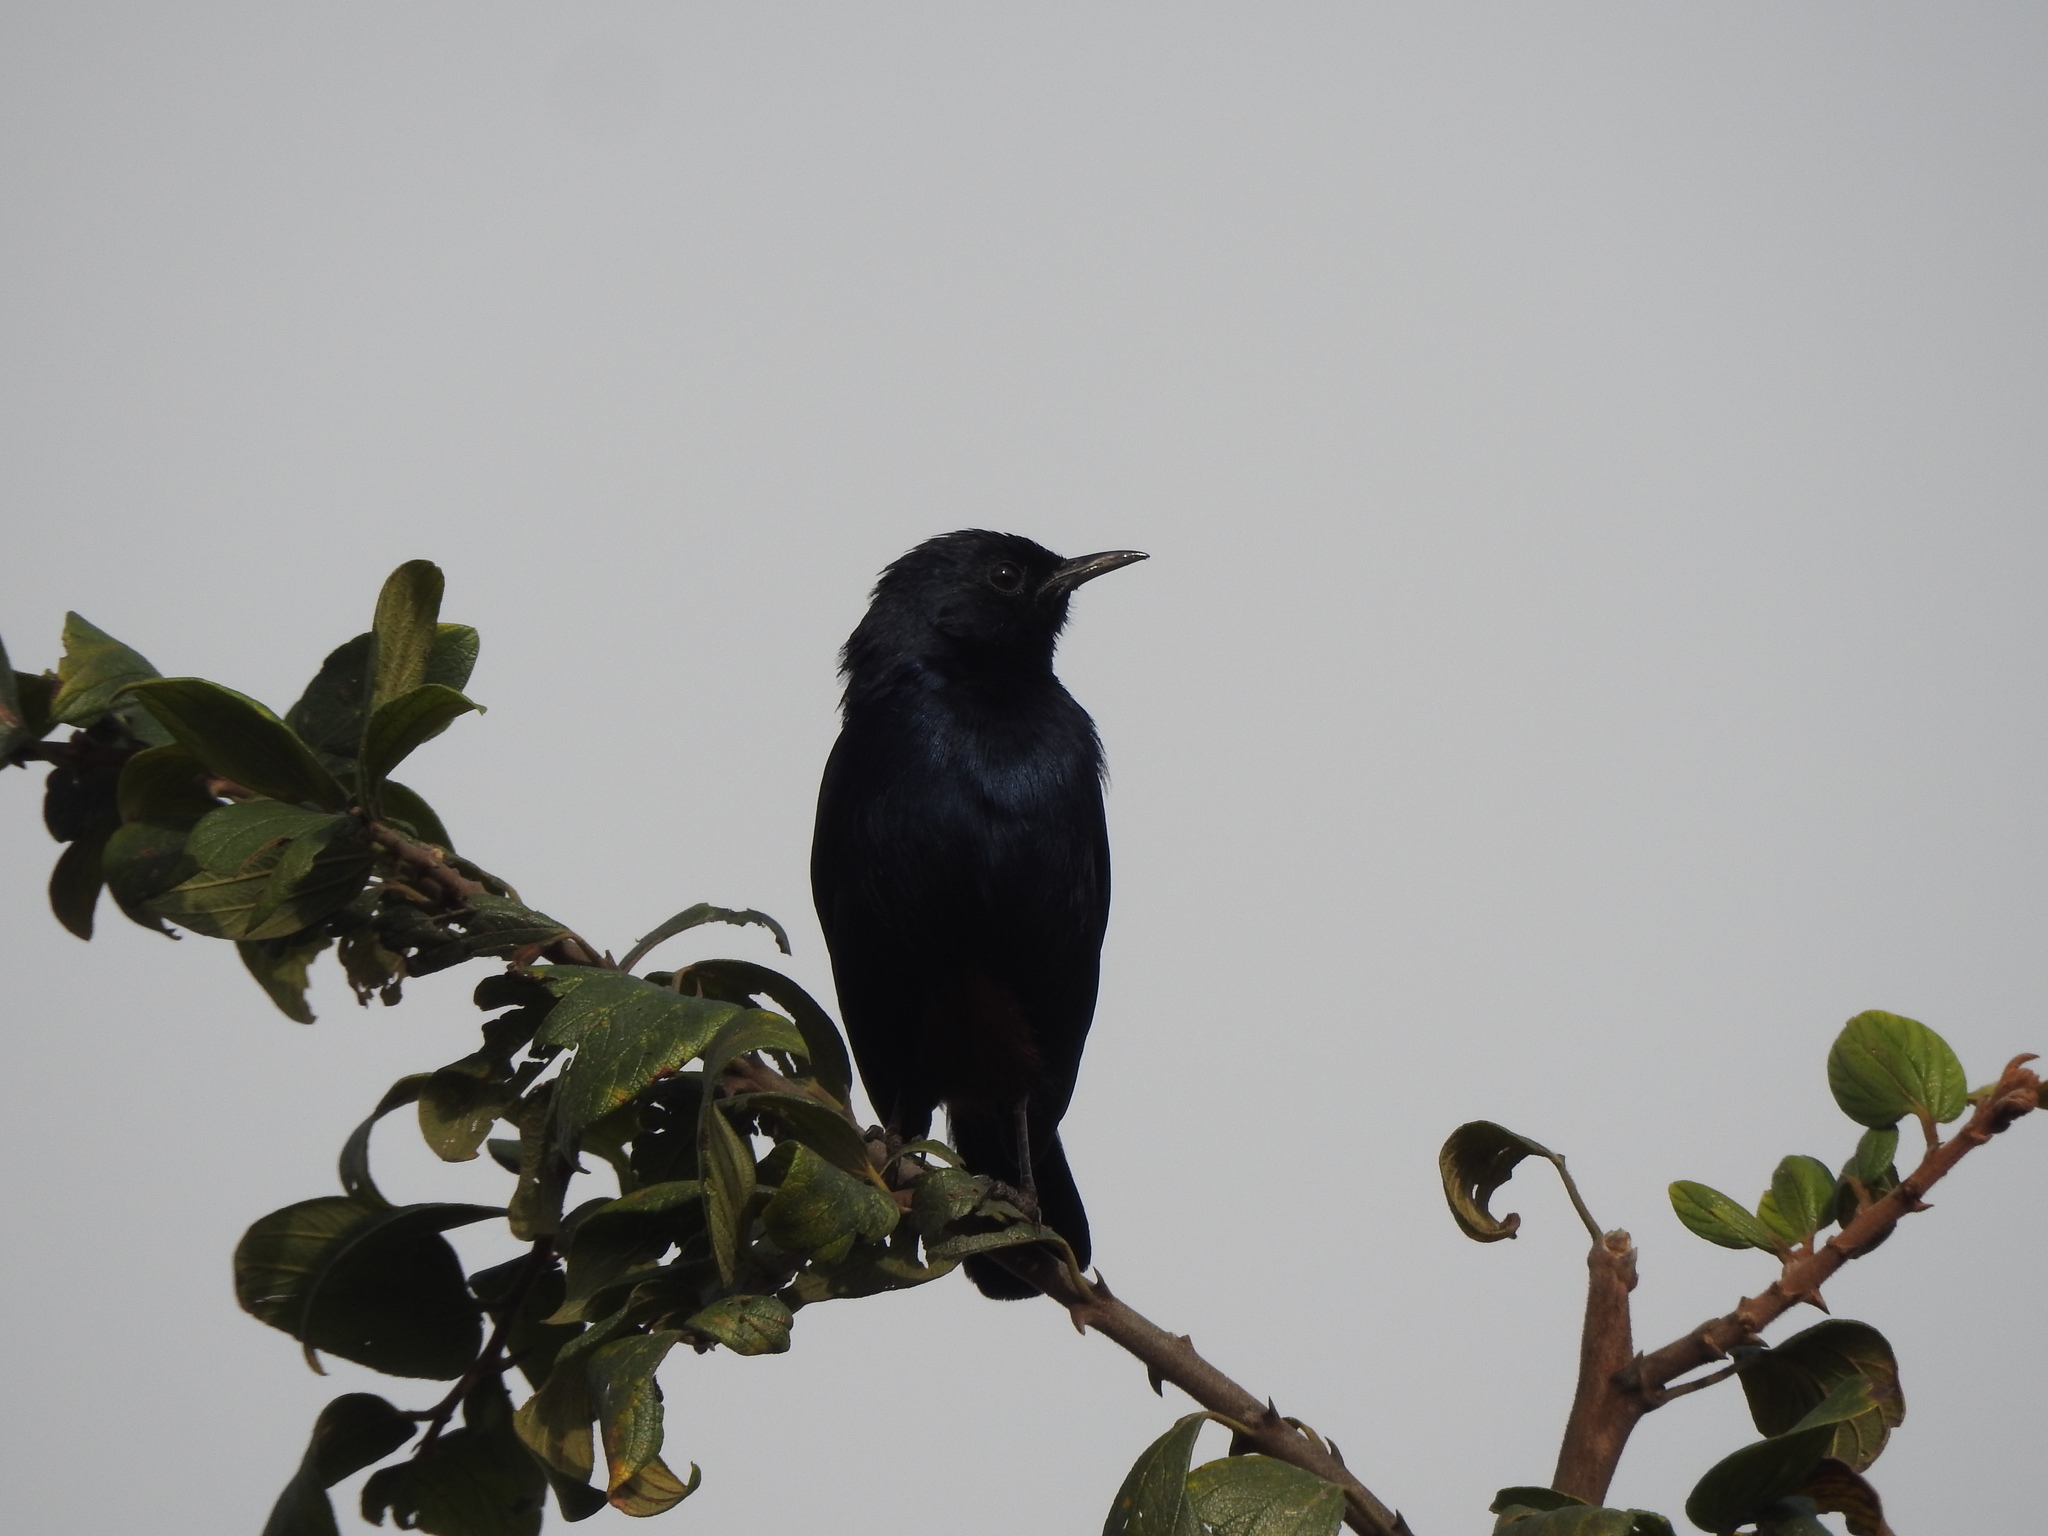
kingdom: Animalia
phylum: Chordata
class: Aves
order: Passeriformes
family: Muscicapidae
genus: Saxicoloides
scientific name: Saxicoloides fulicatus
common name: Indian robin
